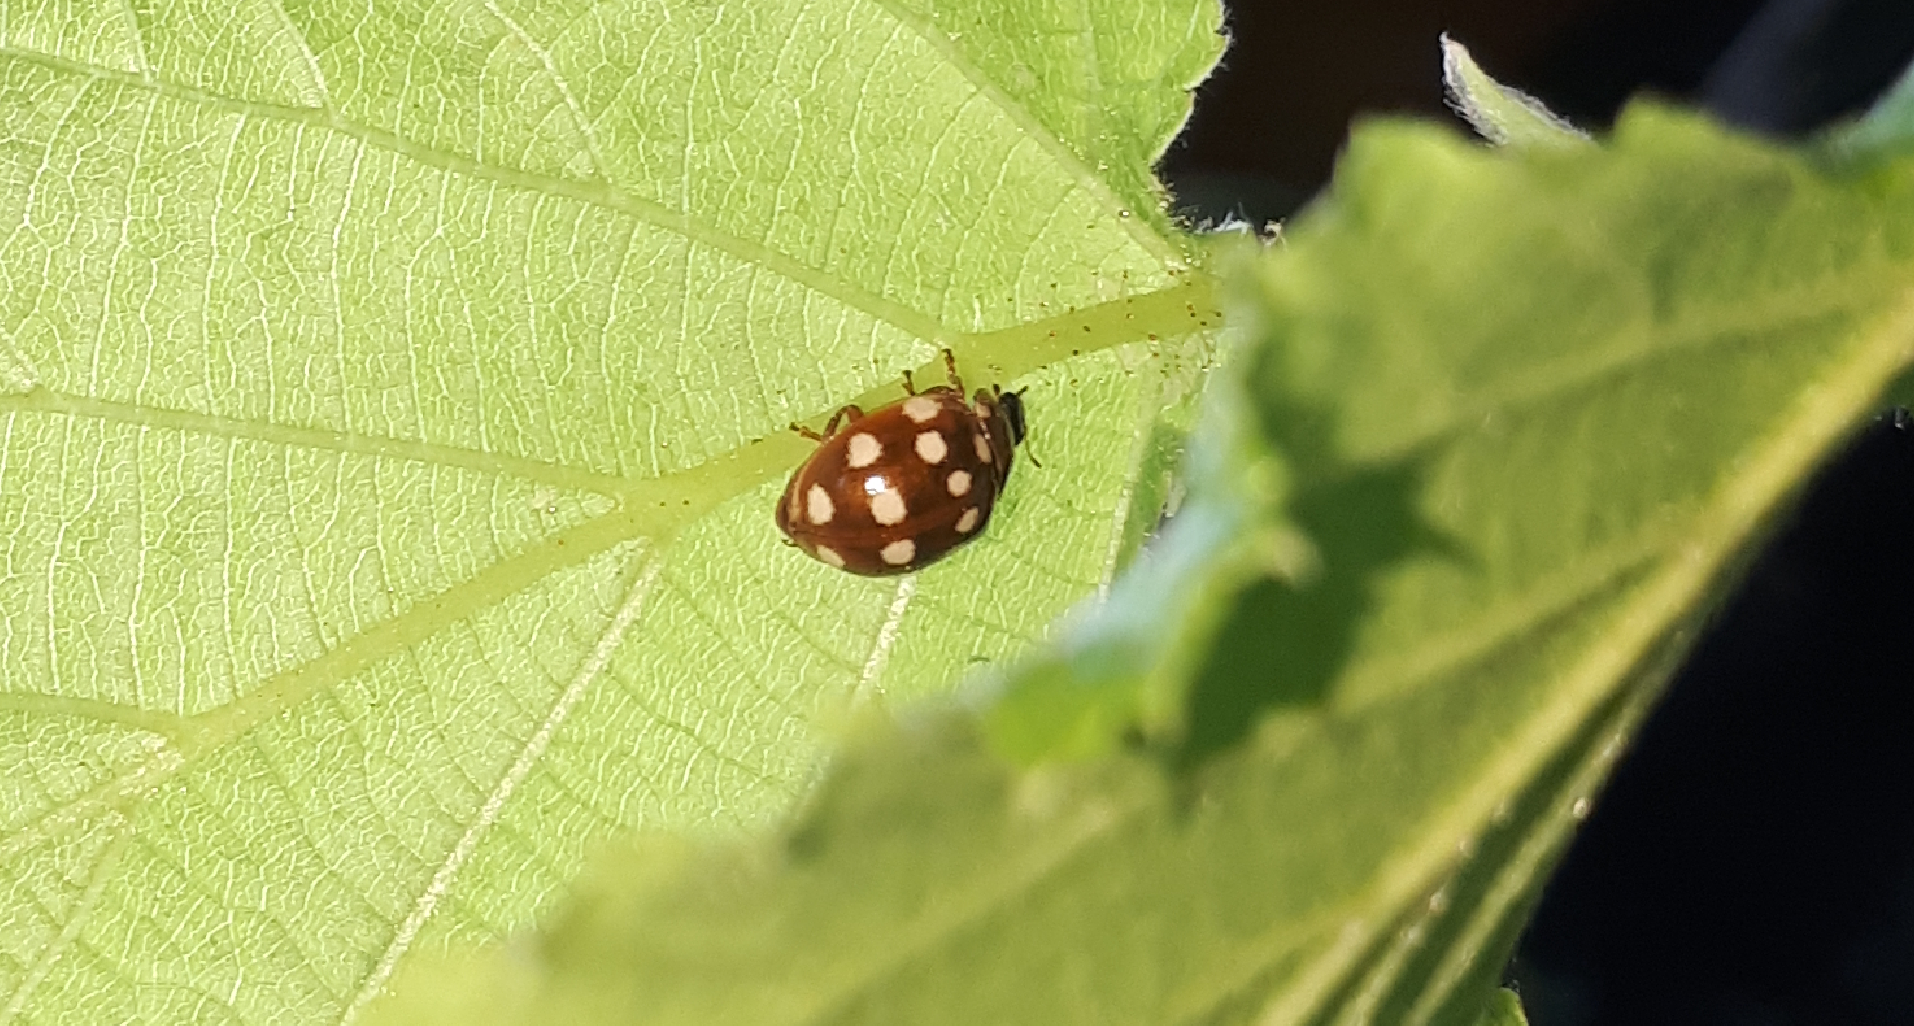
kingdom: Animalia
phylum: Arthropoda
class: Insecta
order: Coleoptera
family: Coccinellidae
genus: Calvia
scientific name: Calvia quatuordecimguttata
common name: Cream-spot ladybird
